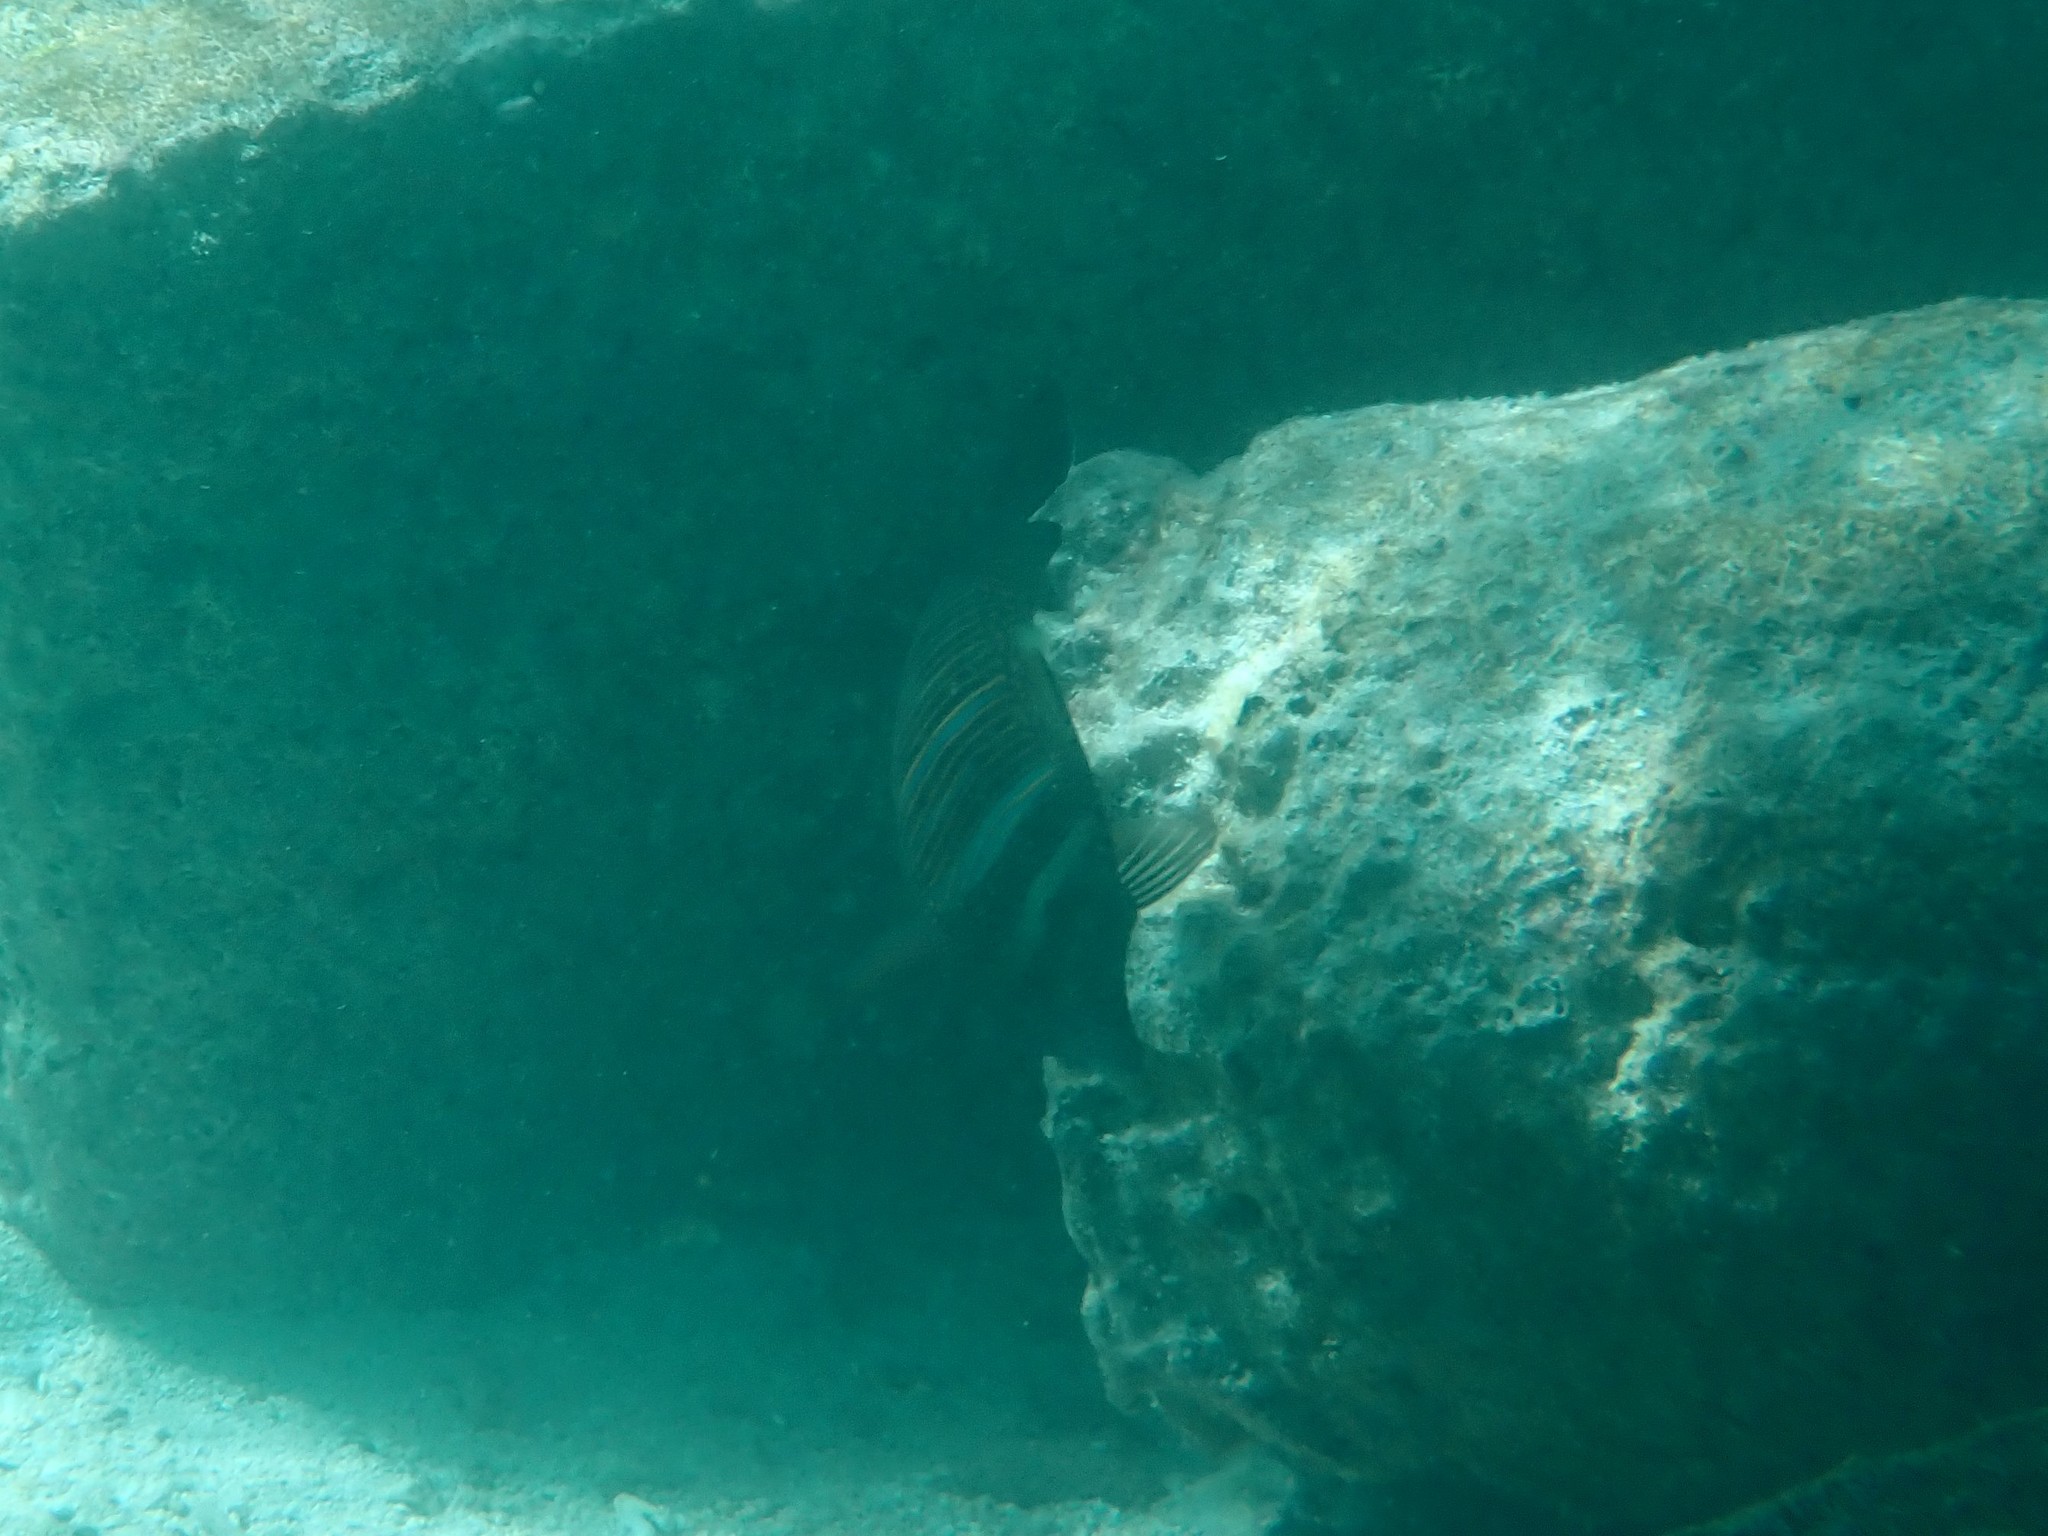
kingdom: Animalia
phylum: Chordata
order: Perciformes
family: Acanthuridae
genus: Zebrasoma
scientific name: Zebrasoma desjardinii
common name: Desjardin's sailfin tang
